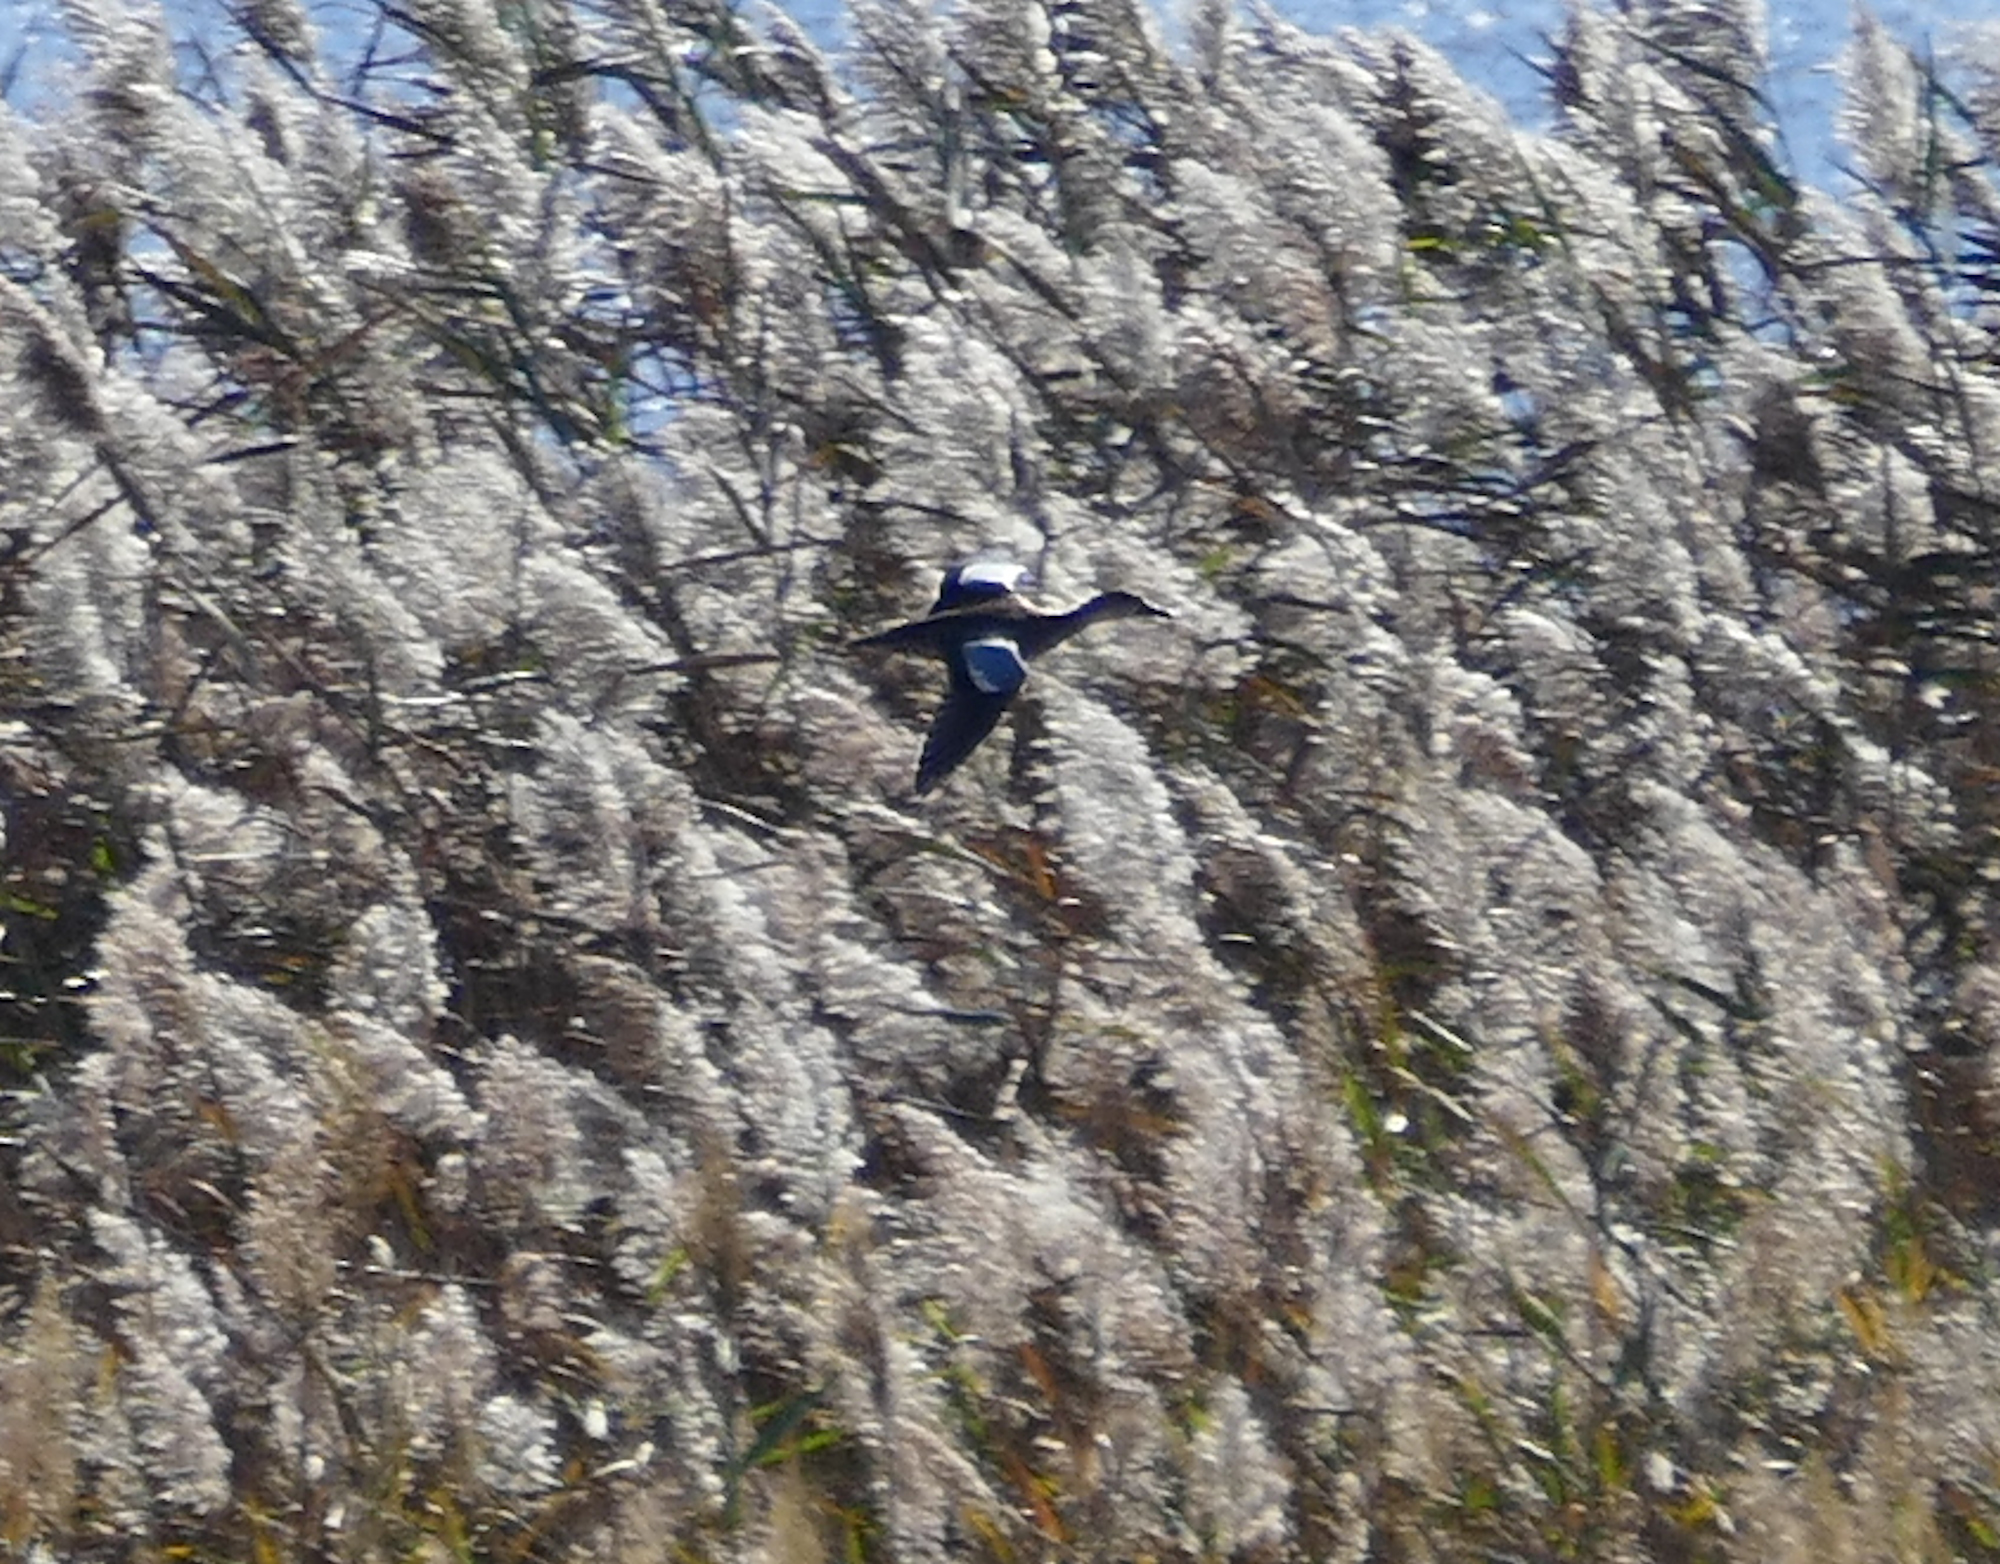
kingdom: Animalia
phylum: Chordata
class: Aves
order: Anseriformes
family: Anatidae
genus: Spatula
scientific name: Spatula discors
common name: Blue-winged teal
